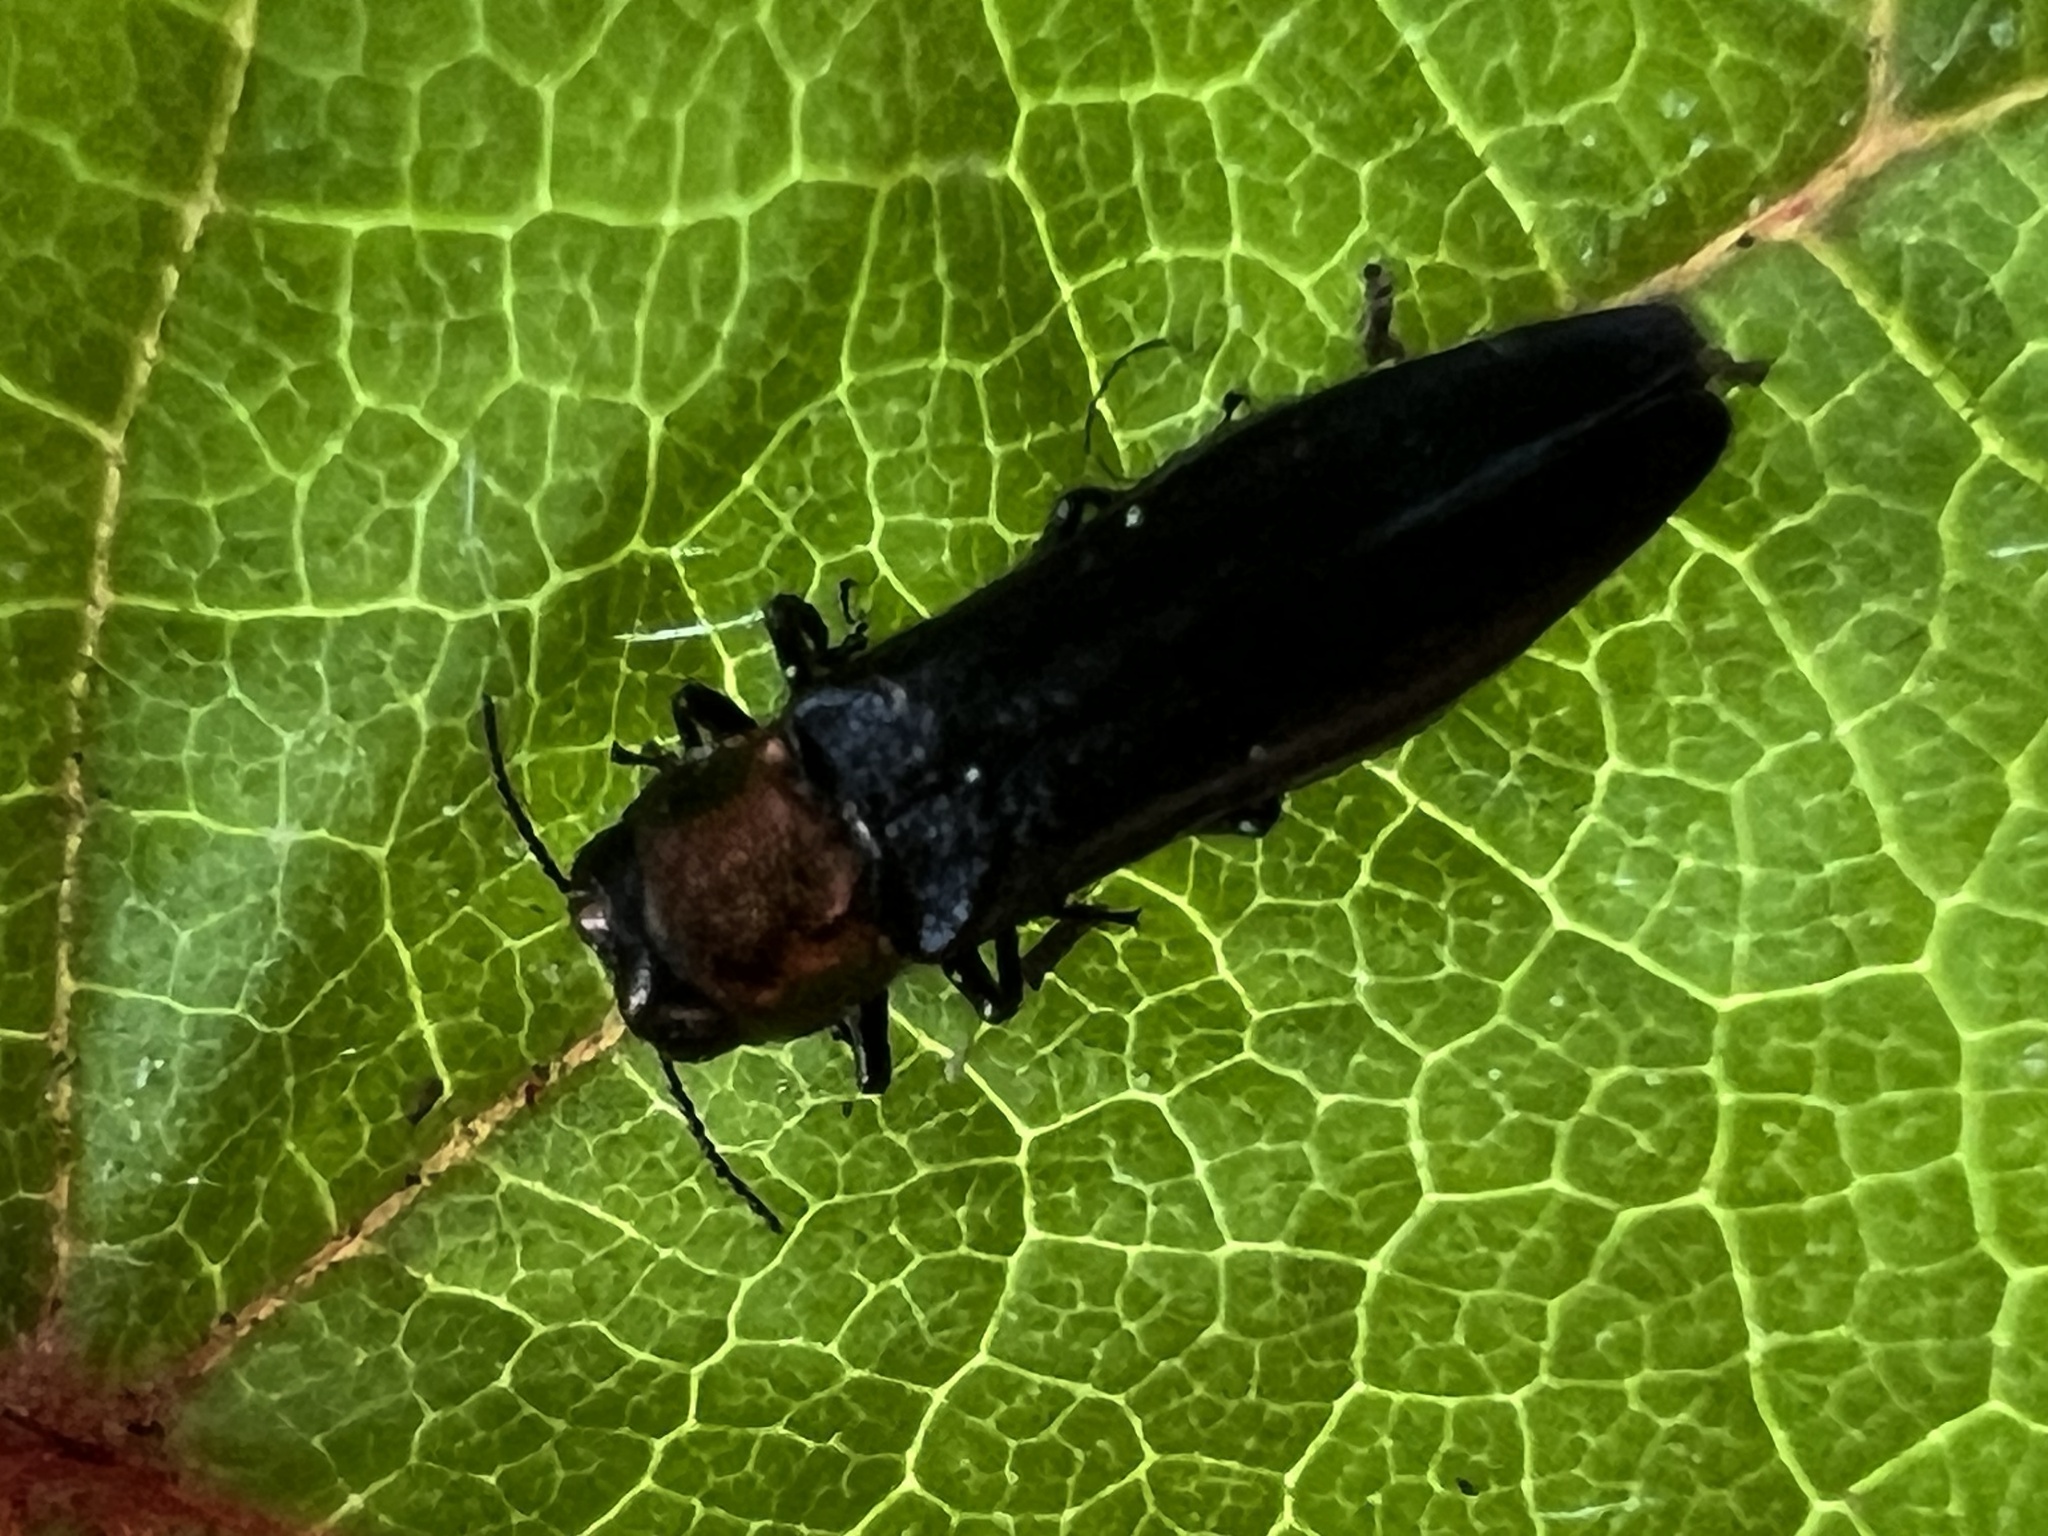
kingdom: Animalia
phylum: Arthropoda
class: Insecta
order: Coleoptera
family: Buprestidae
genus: Agrilus
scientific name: Agrilus ruficollis
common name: Red-necked cane borer beetle
